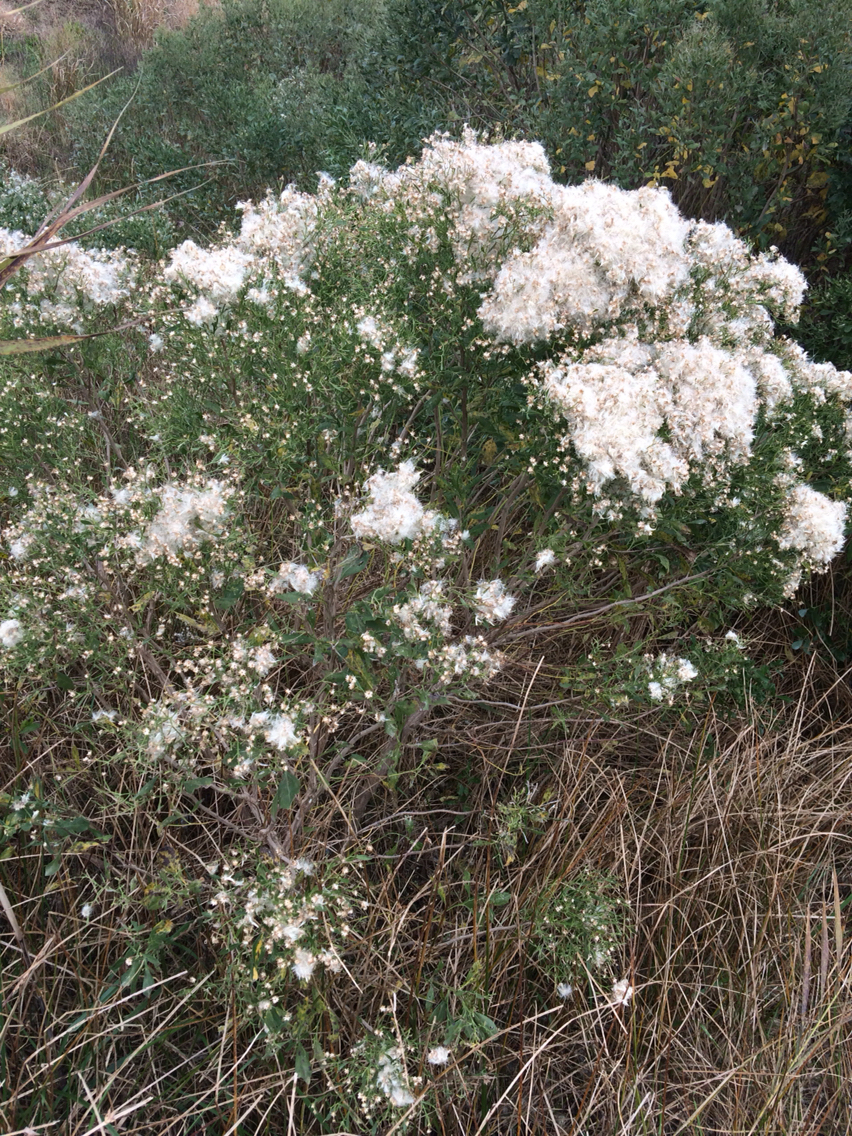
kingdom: Plantae
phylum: Tracheophyta
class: Magnoliopsida
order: Asterales
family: Asteraceae
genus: Baccharis
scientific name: Baccharis halimifolia
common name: Eastern baccharis
